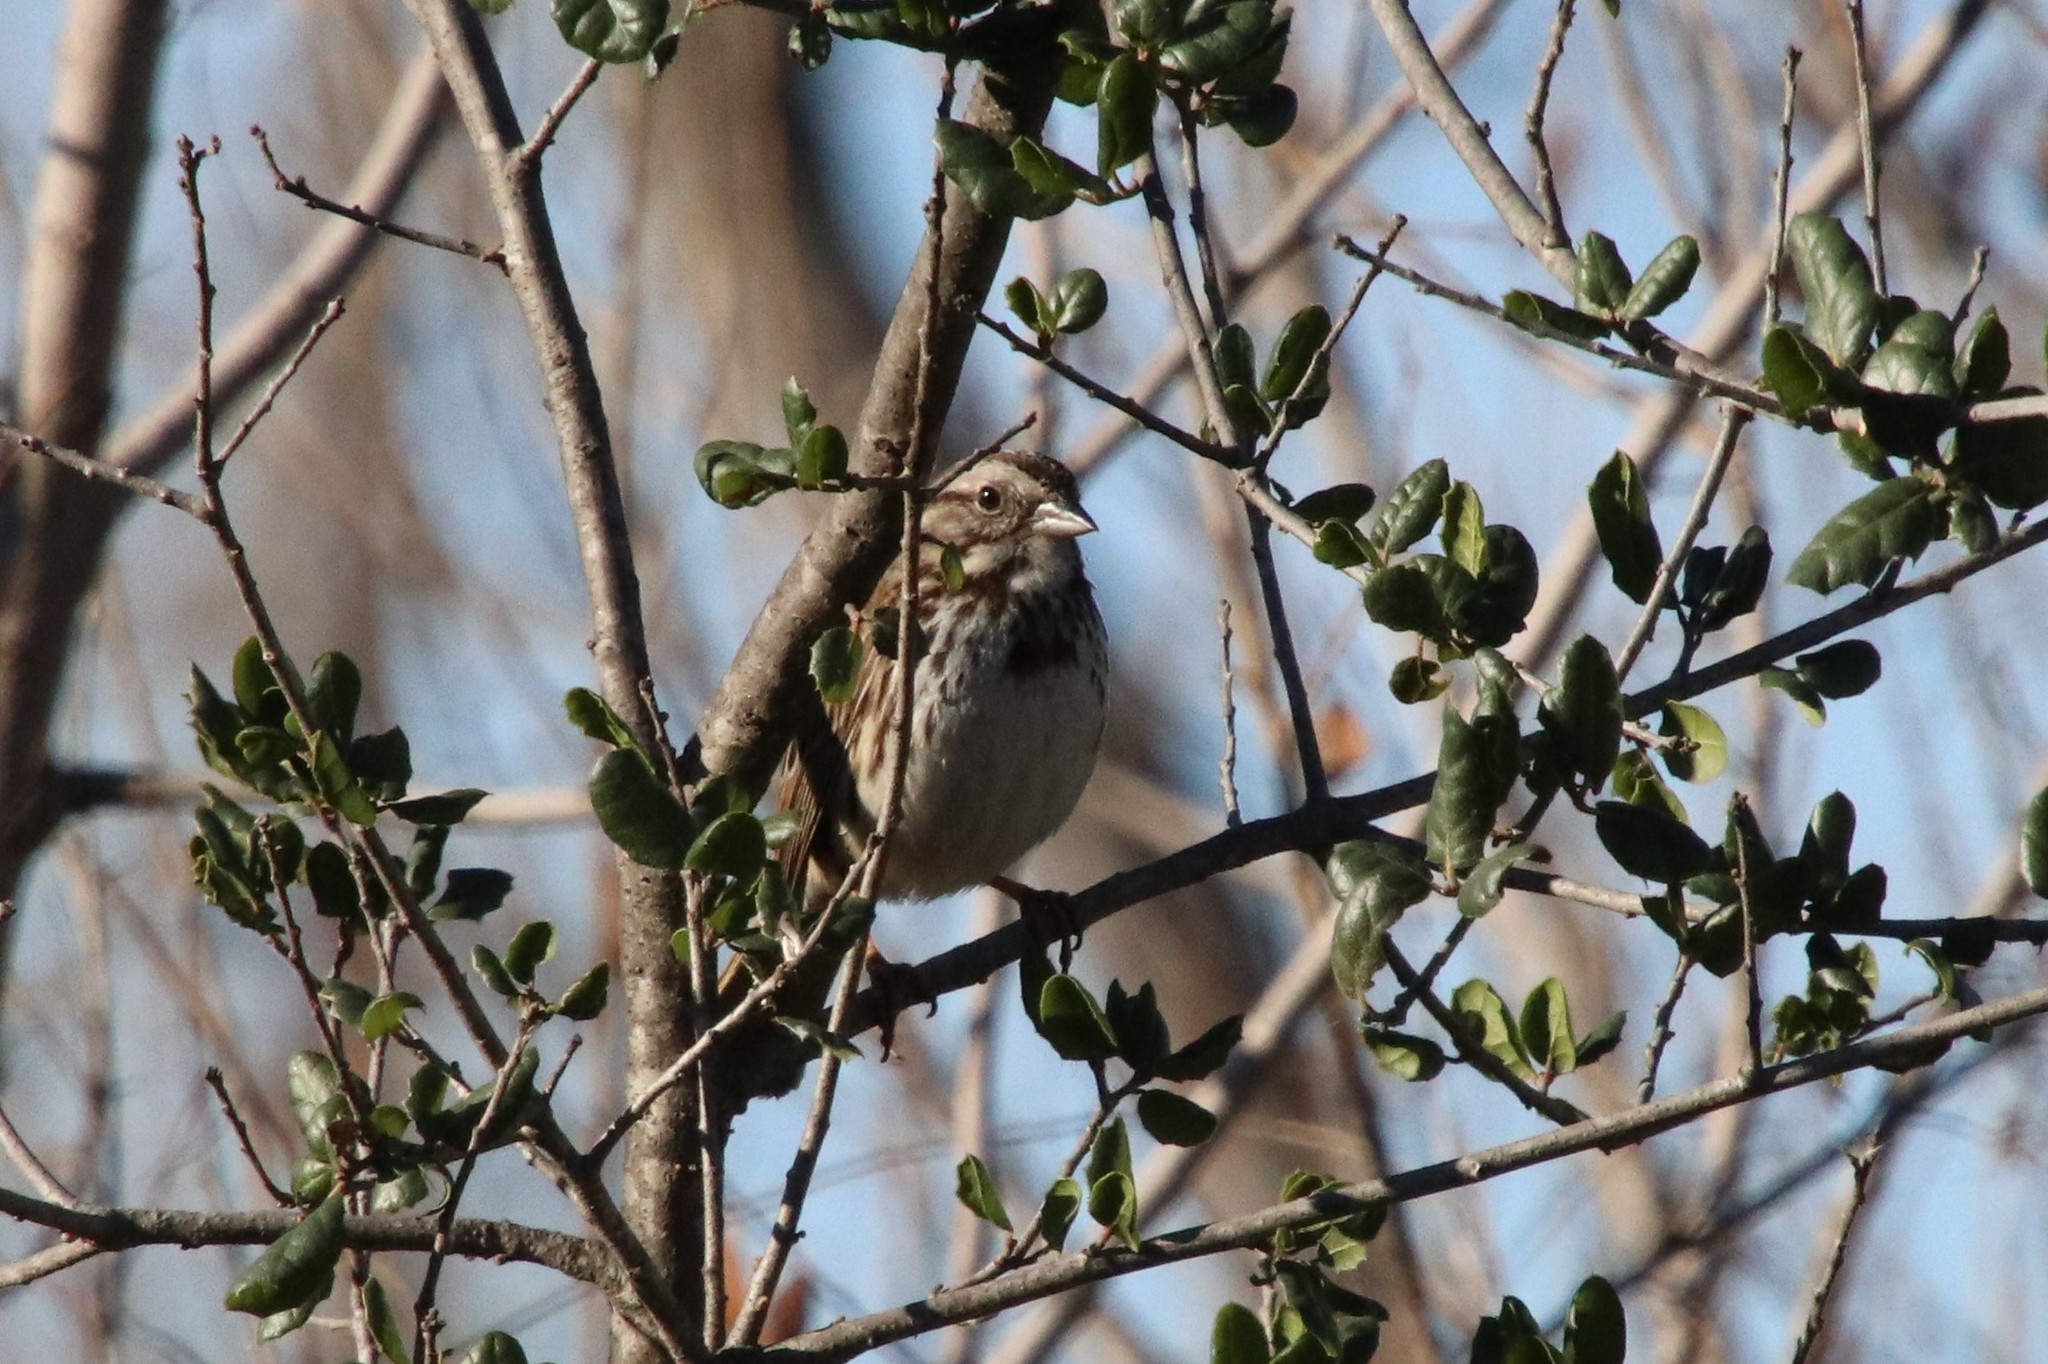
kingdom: Animalia
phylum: Chordata
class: Aves
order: Passeriformes
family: Passerellidae
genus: Melospiza
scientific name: Melospiza melodia
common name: Song sparrow
